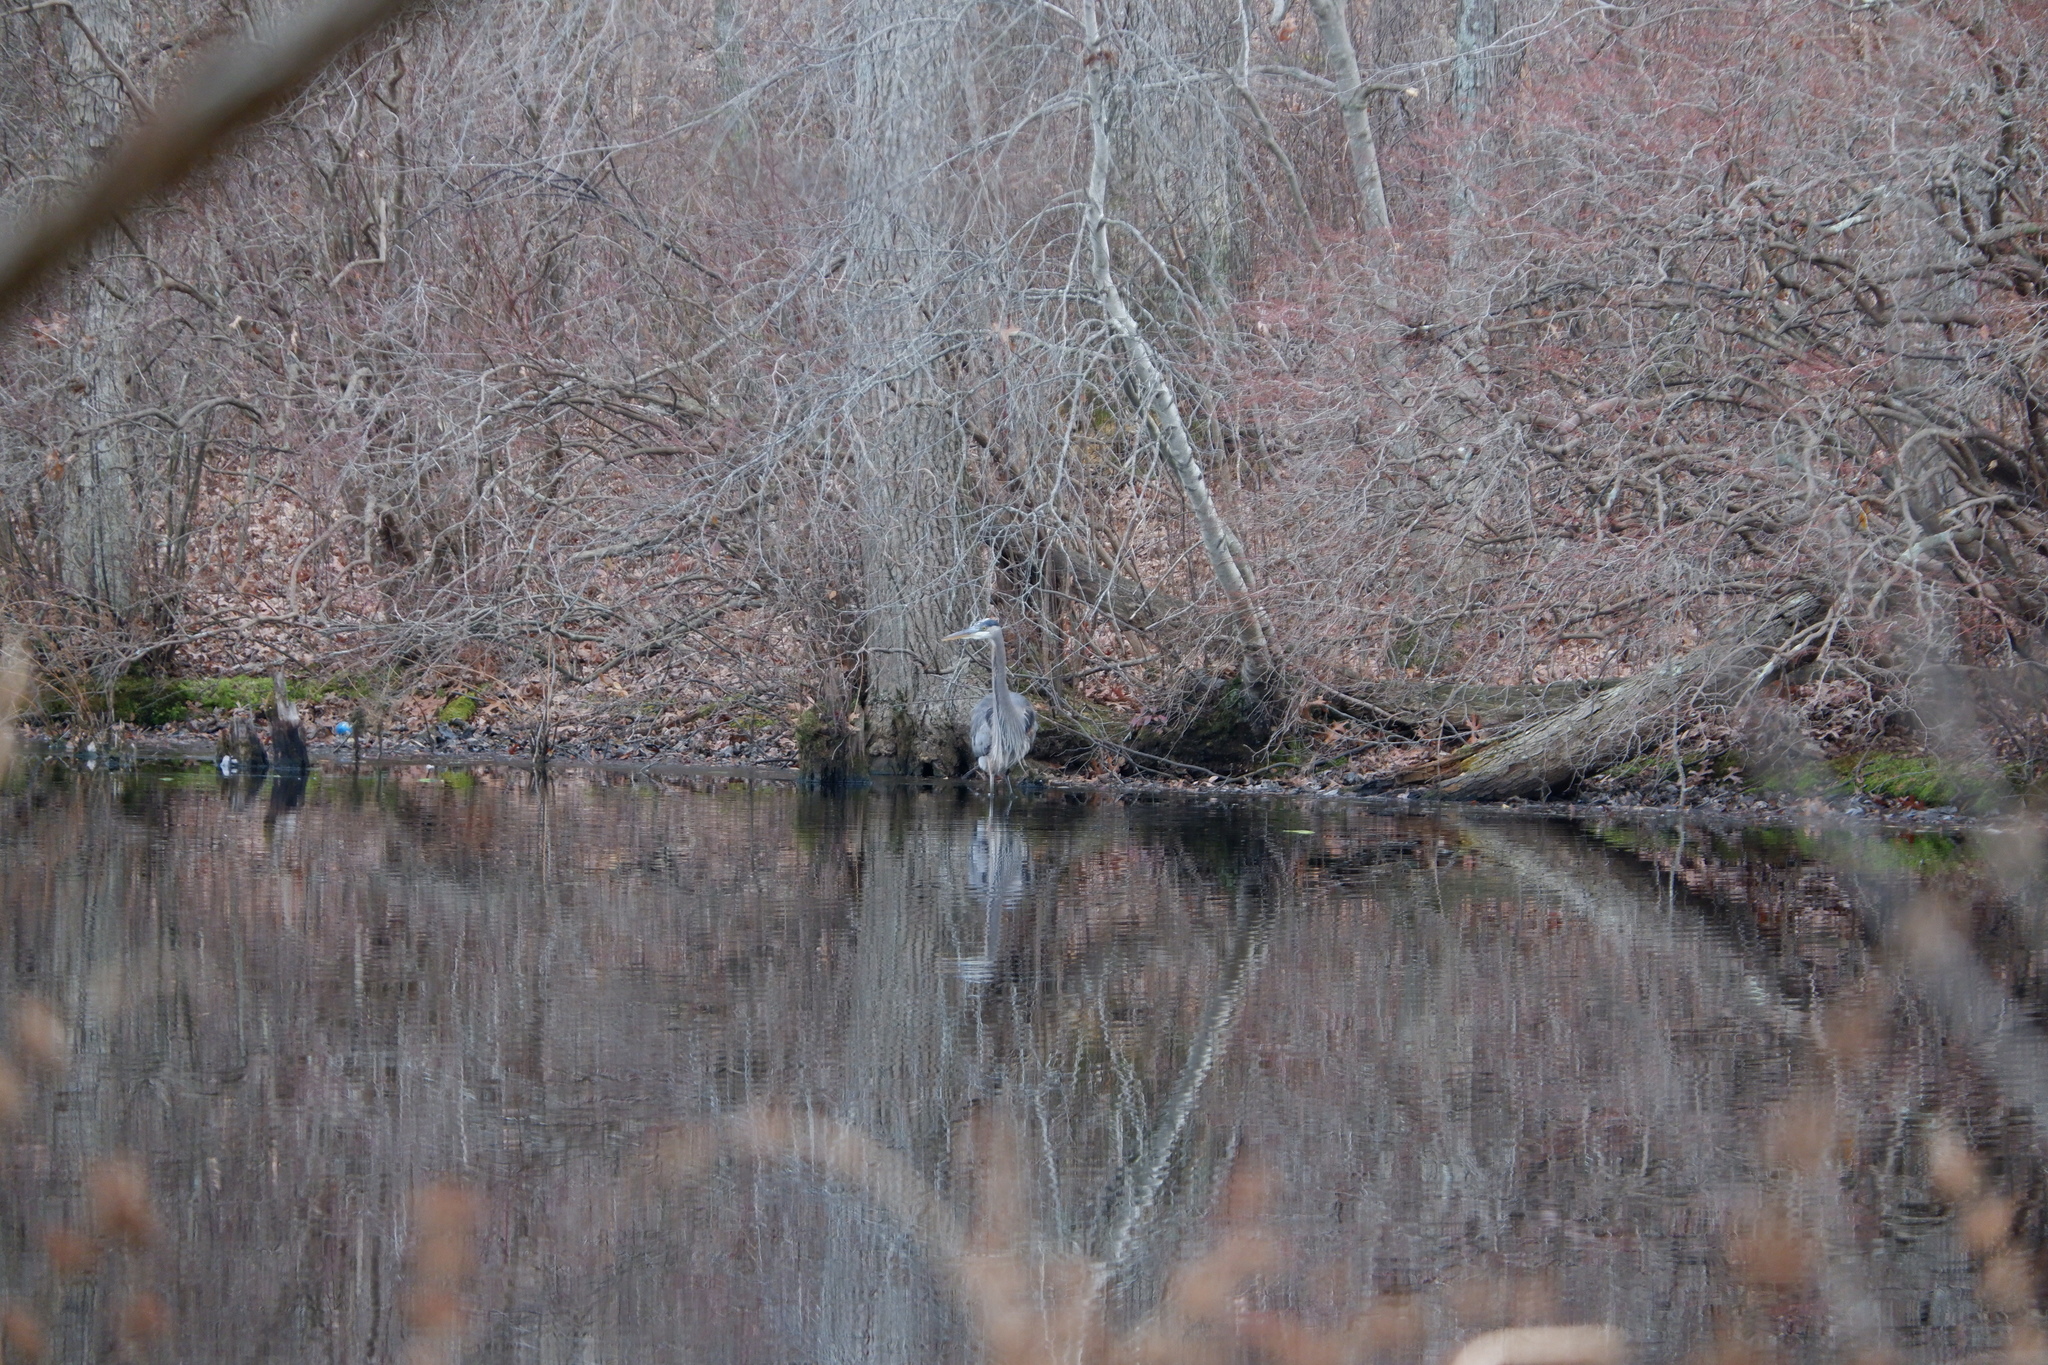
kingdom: Animalia
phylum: Chordata
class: Aves
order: Pelecaniformes
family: Ardeidae
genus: Ardea
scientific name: Ardea herodias
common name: Great blue heron
